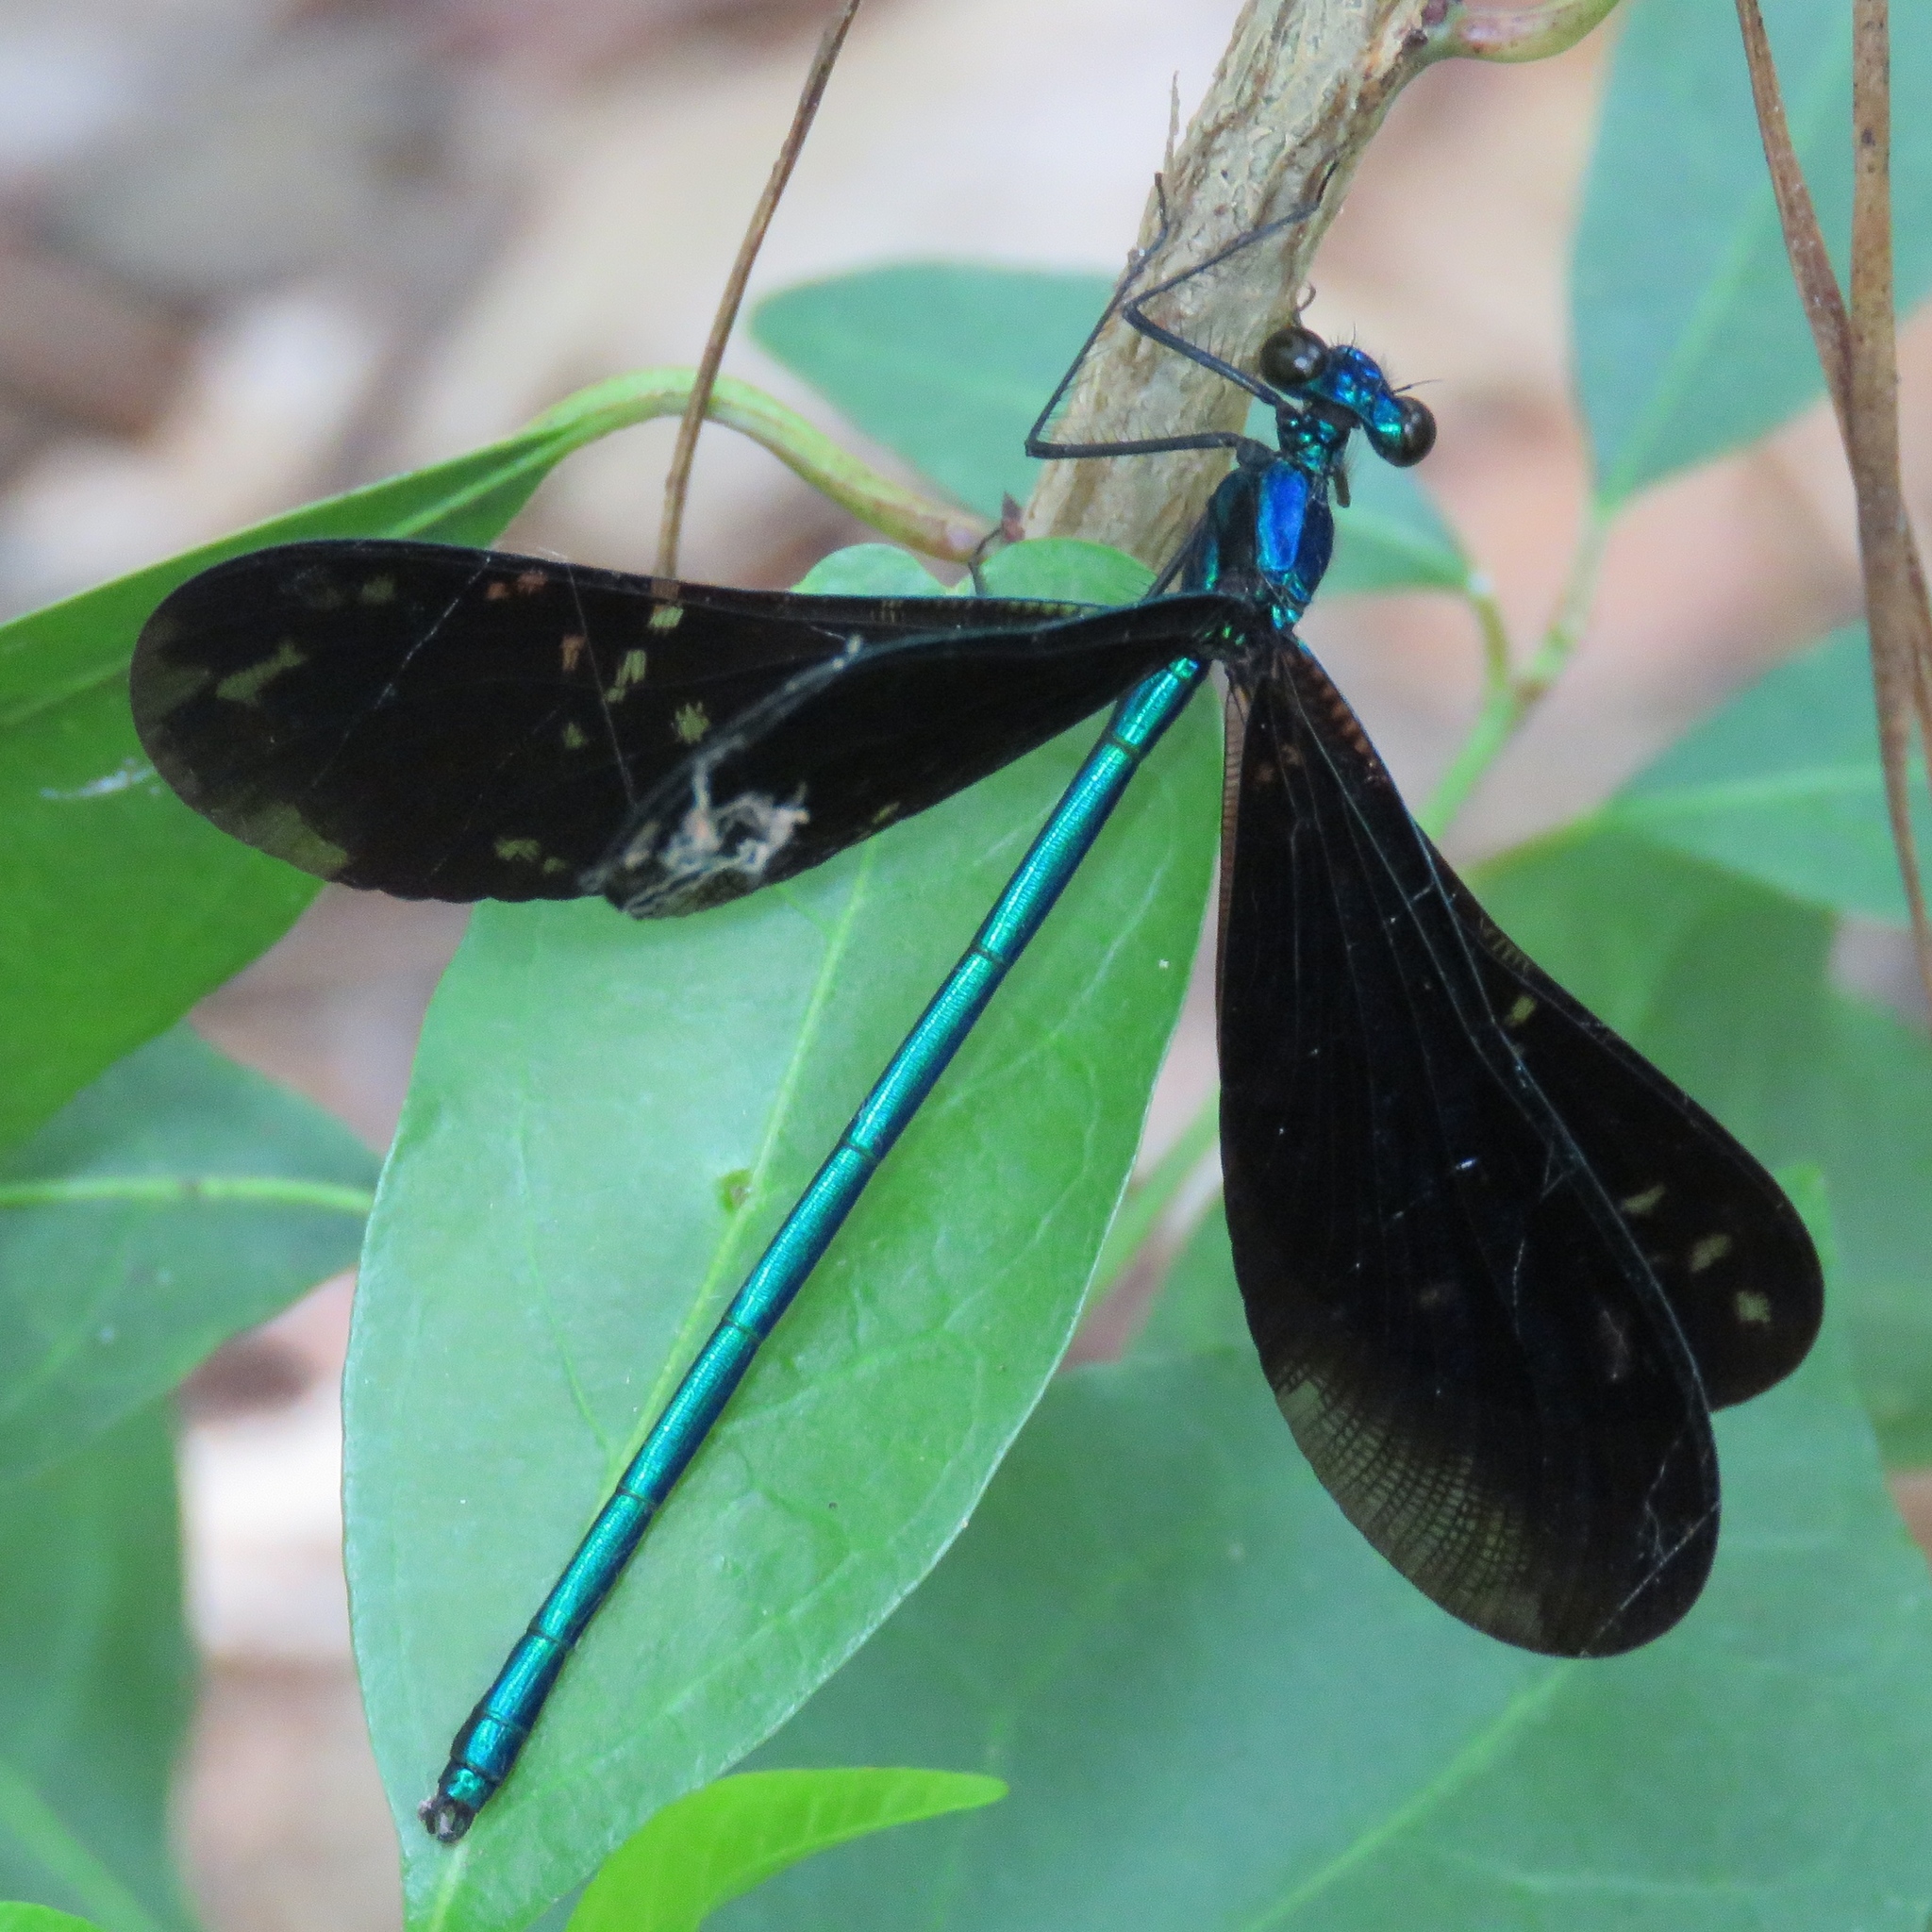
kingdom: Animalia
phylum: Arthropoda
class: Insecta
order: Odonata
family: Calopterygidae
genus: Calopteryx
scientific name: Calopteryx maculata
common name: Ebony jewelwing
